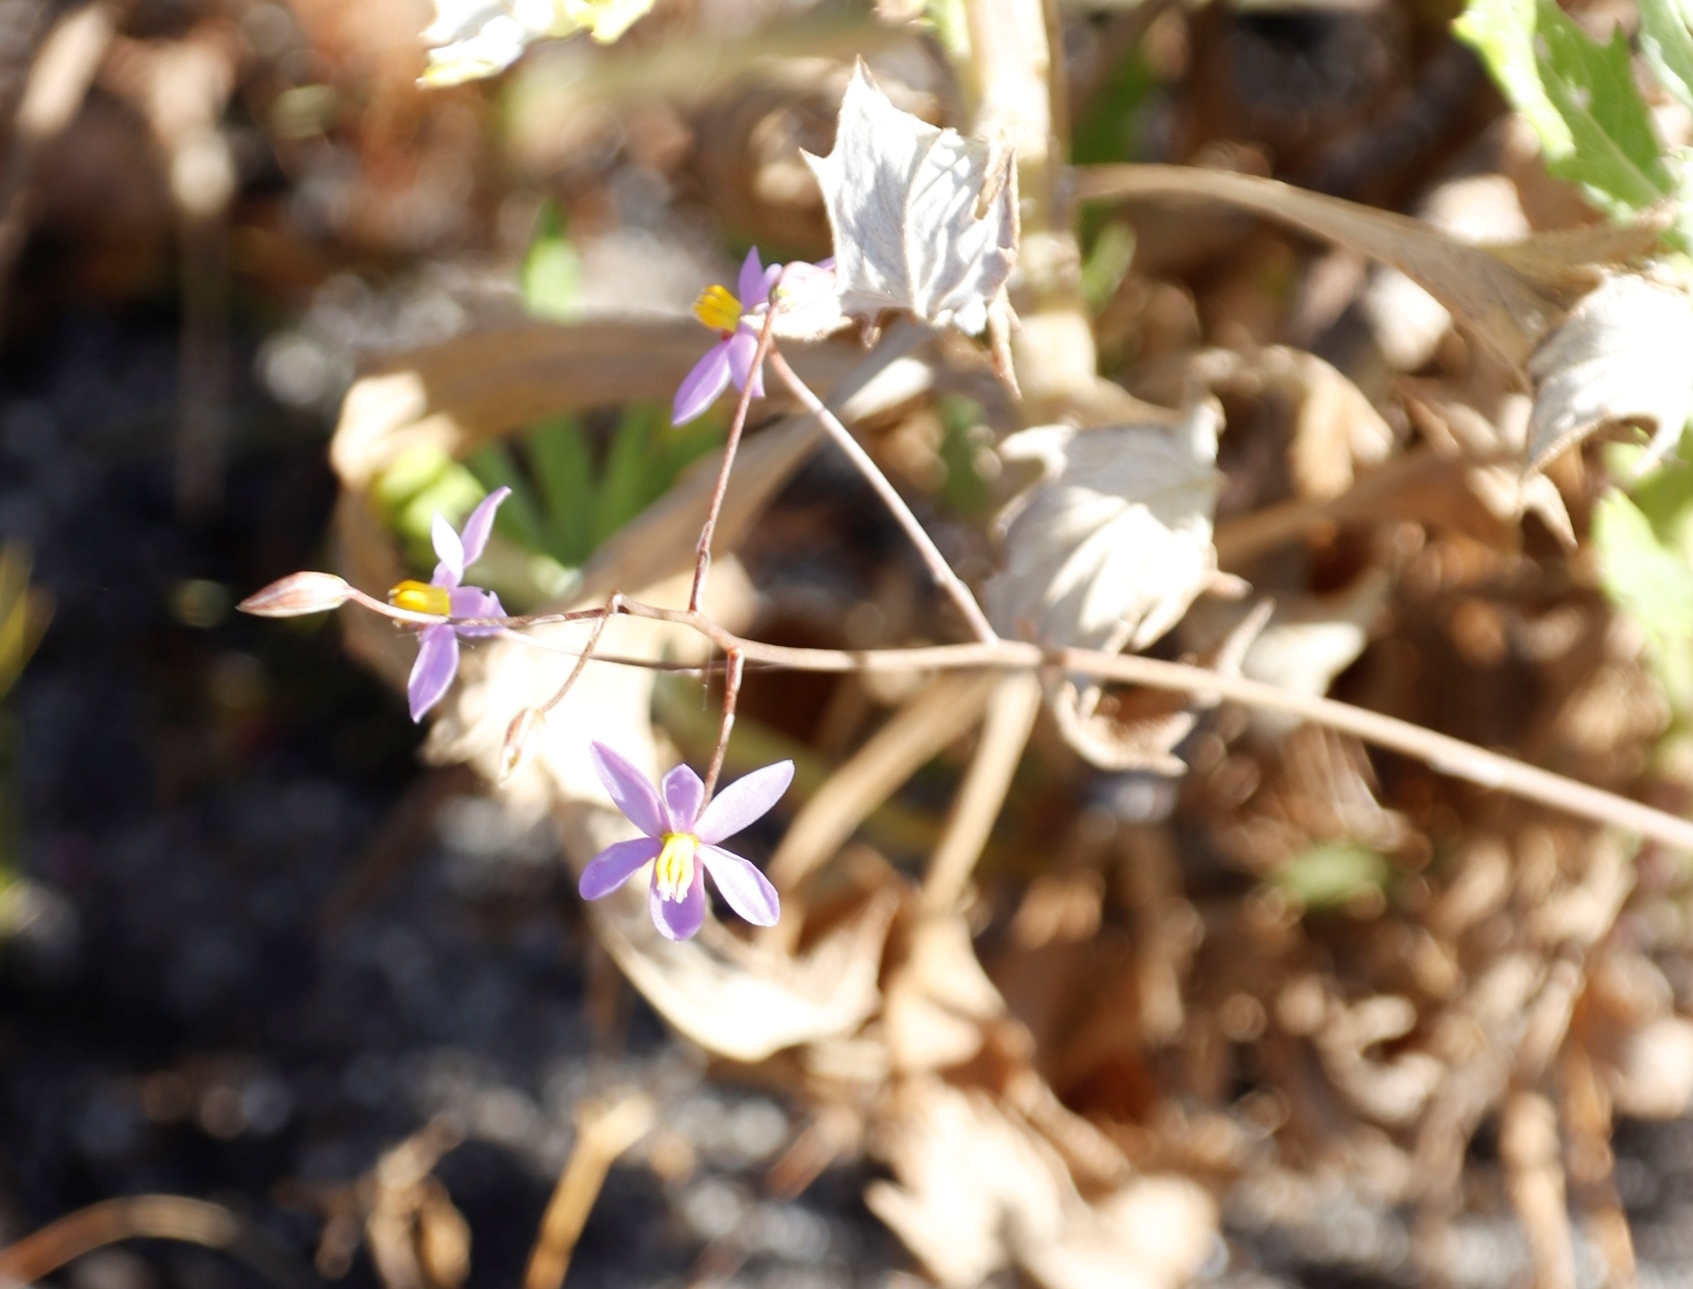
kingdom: Plantae
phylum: Tracheophyta
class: Liliopsida
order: Asparagales
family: Tecophilaeaceae
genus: Cyanella
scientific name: Cyanella hyacinthoides
